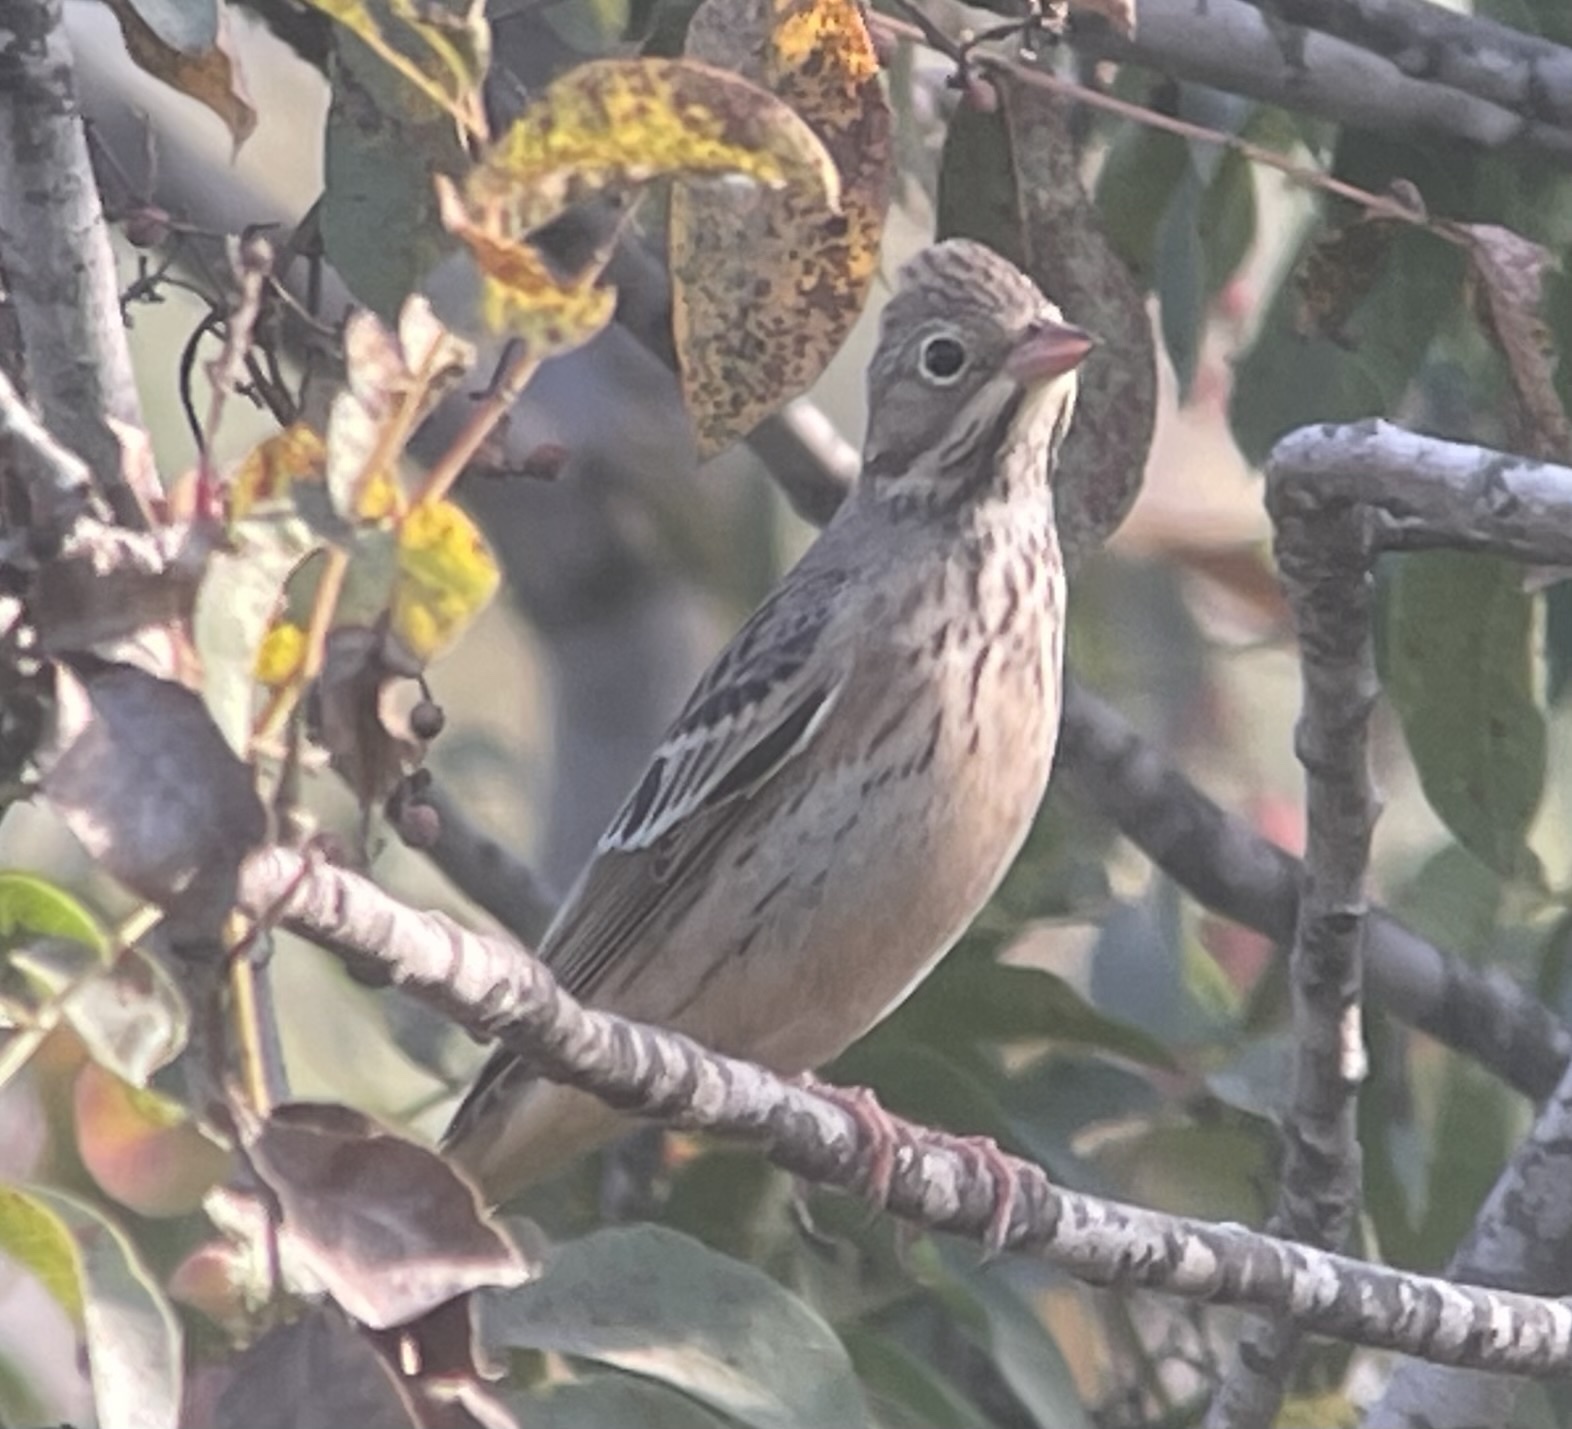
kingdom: Animalia
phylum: Chordata
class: Aves
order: Passeriformes
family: Emberizidae
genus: Emberiza
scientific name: Emberiza hortulana
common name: Ortolan bunting
